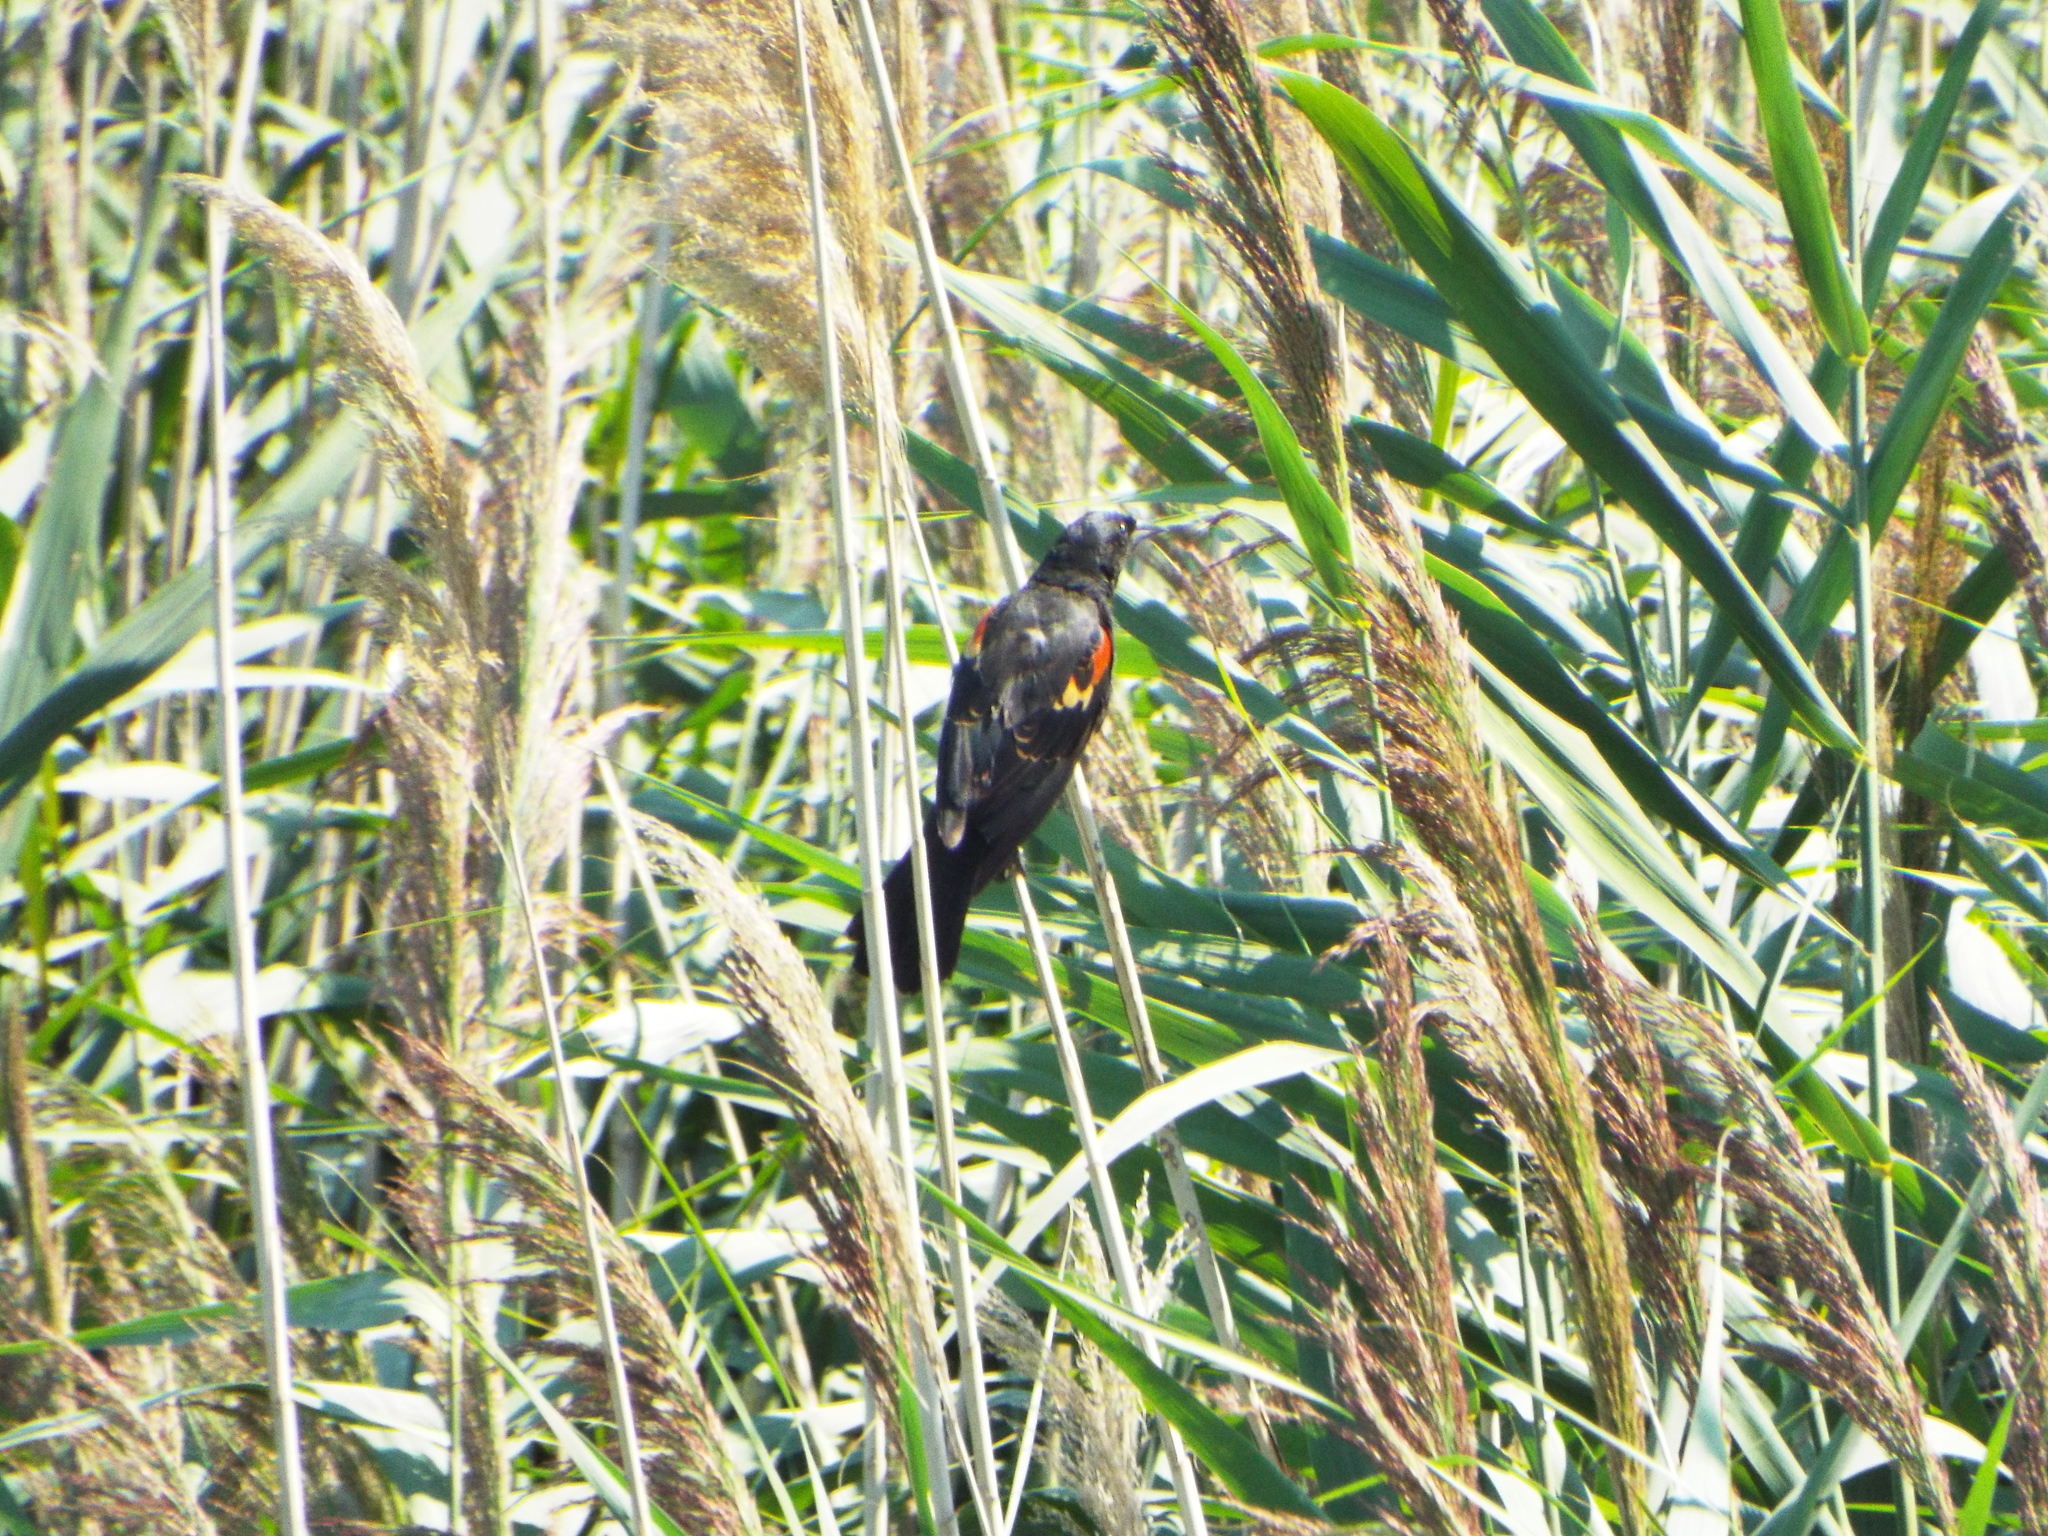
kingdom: Animalia
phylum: Chordata
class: Aves
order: Passeriformes
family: Icteridae
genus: Agelaius
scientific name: Agelaius phoeniceus
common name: Red-winged blackbird
